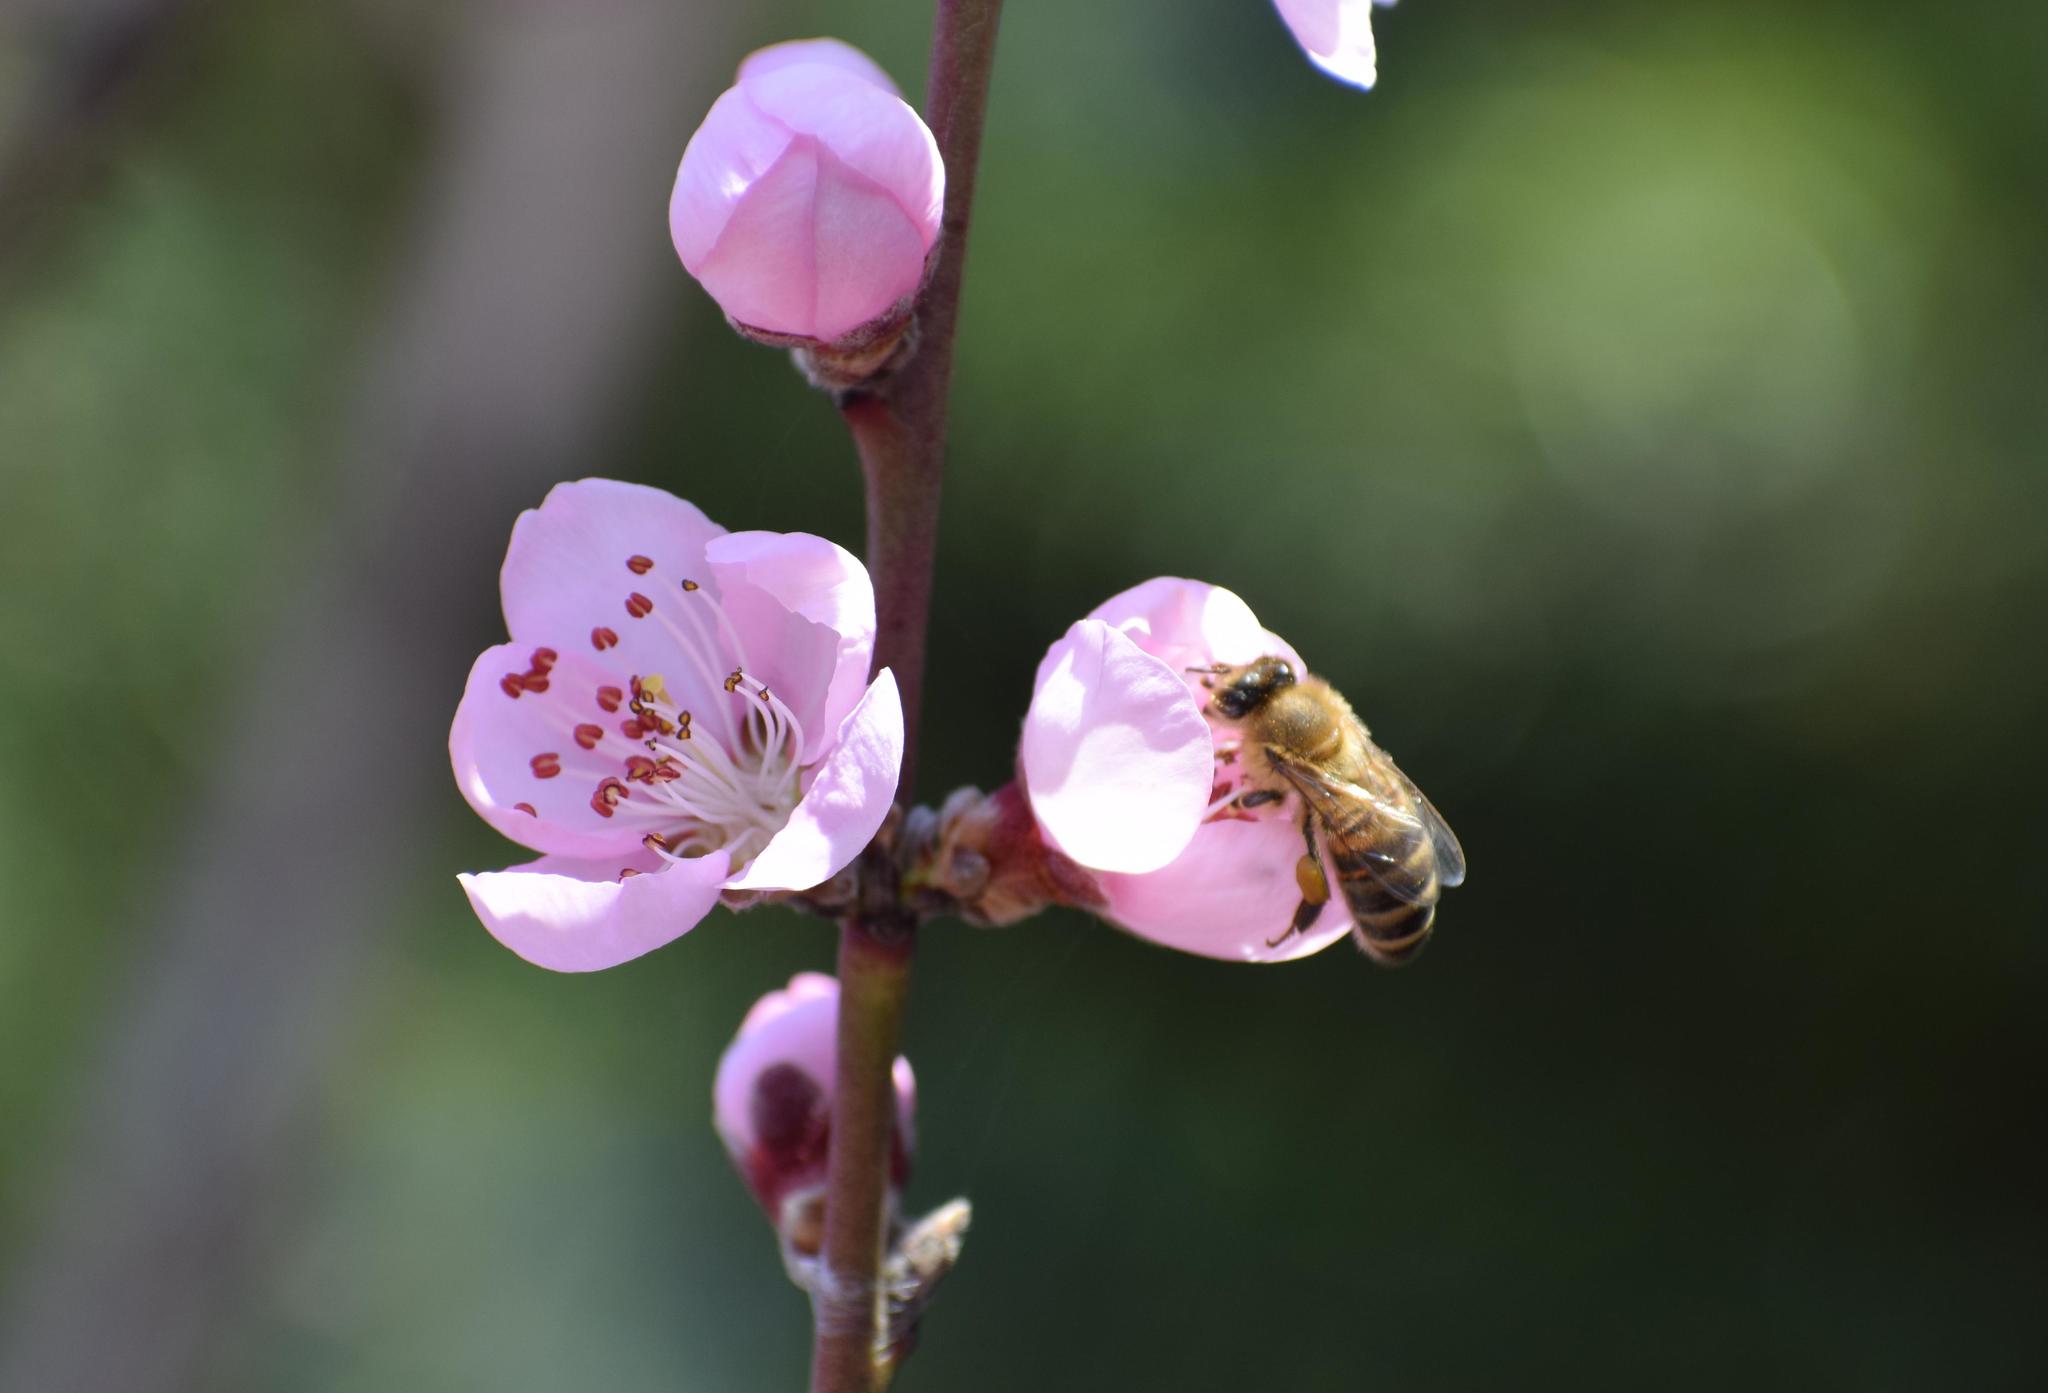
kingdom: Animalia
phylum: Arthropoda
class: Insecta
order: Hymenoptera
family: Apidae
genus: Apis
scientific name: Apis mellifera
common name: Honey bee
